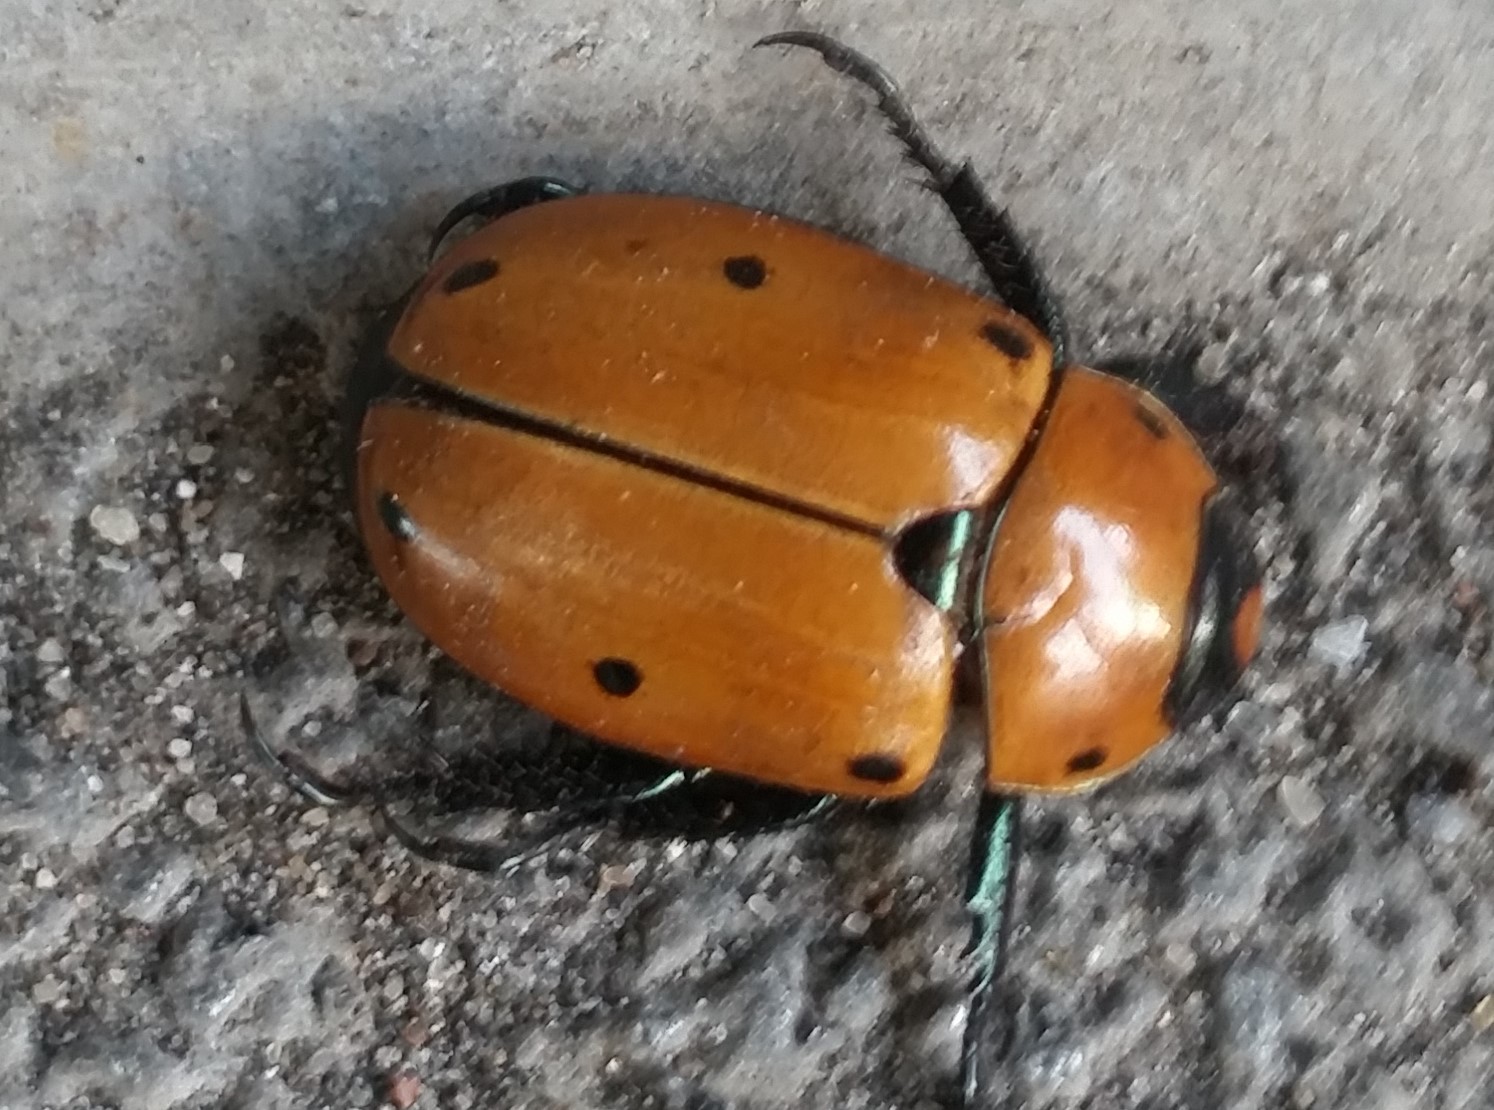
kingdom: Animalia
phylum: Arthropoda
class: Insecta
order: Coleoptera
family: Scarabaeidae
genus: Pelidnota
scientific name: Pelidnota punctata
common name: Grapevine beetle
